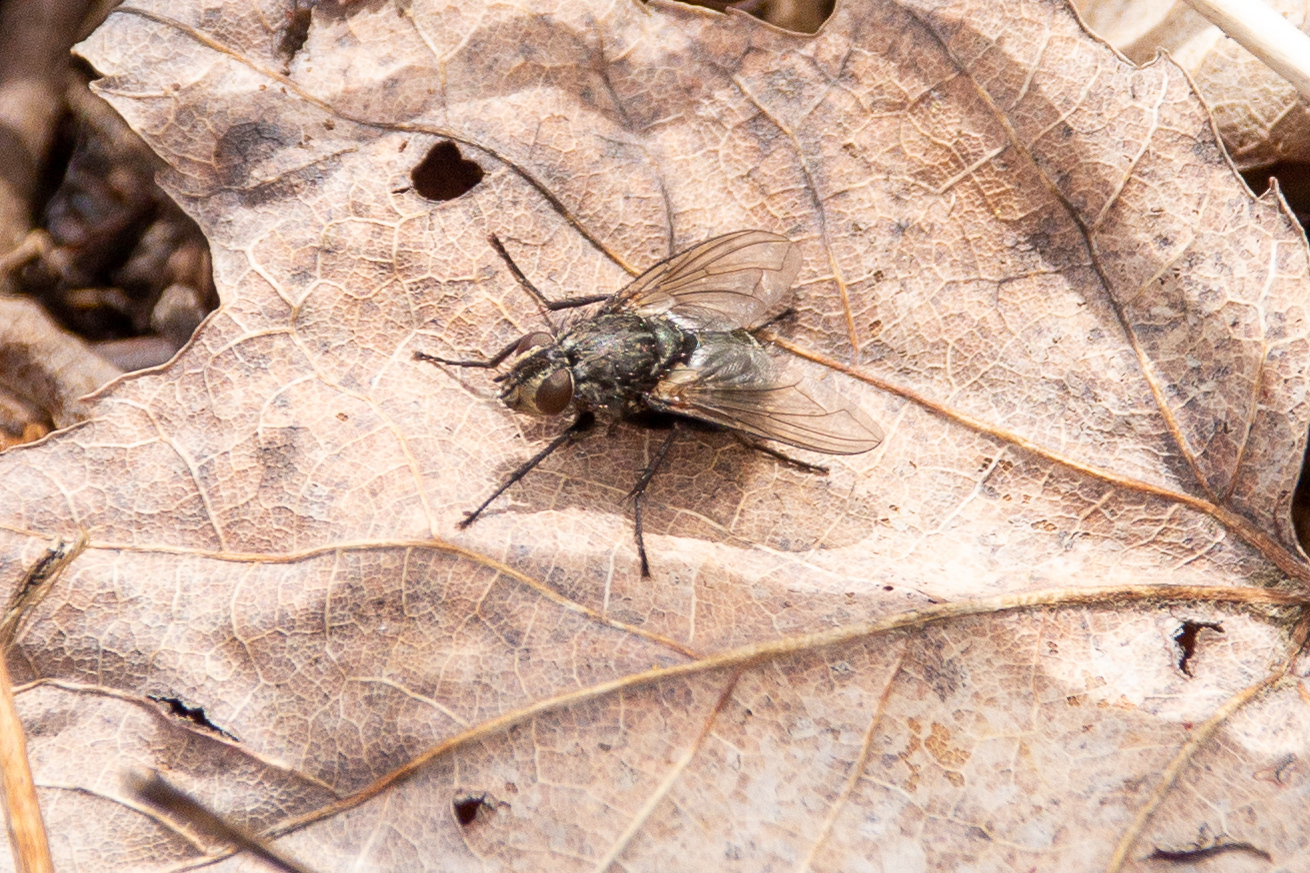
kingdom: Animalia
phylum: Arthropoda
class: Insecta
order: Diptera
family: Polleniidae
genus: Pollenia
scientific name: Pollenia vagabunda
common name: Vagabund cluster fly
